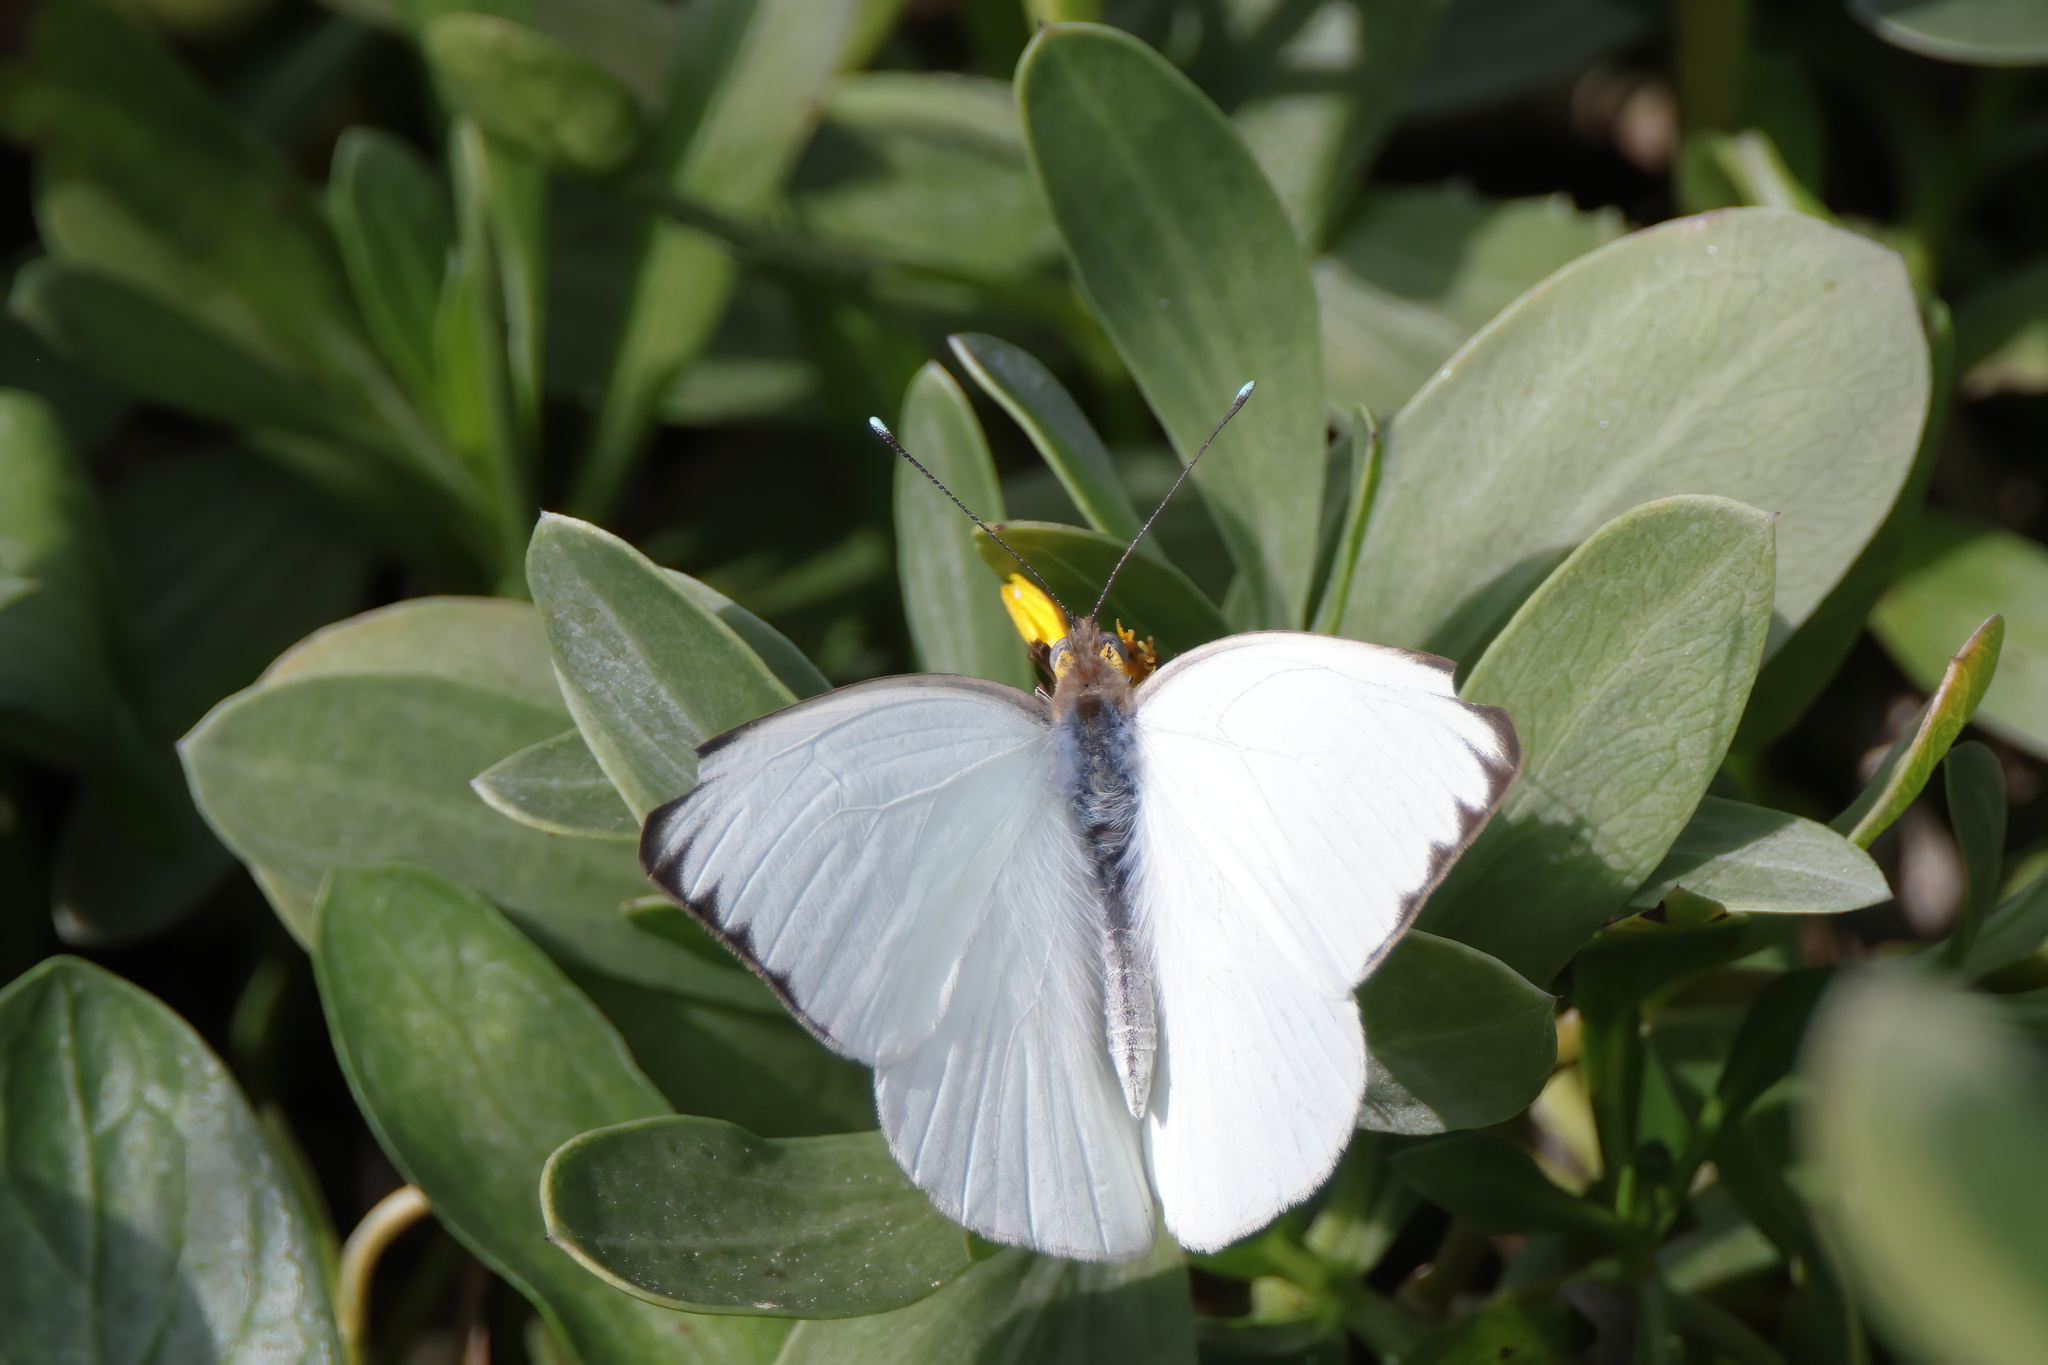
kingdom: Animalia
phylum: Arthropoda
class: Insecta
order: Lepidoptera
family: Pieridae
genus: Ascia
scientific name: Ascia monuste
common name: Great southern white
